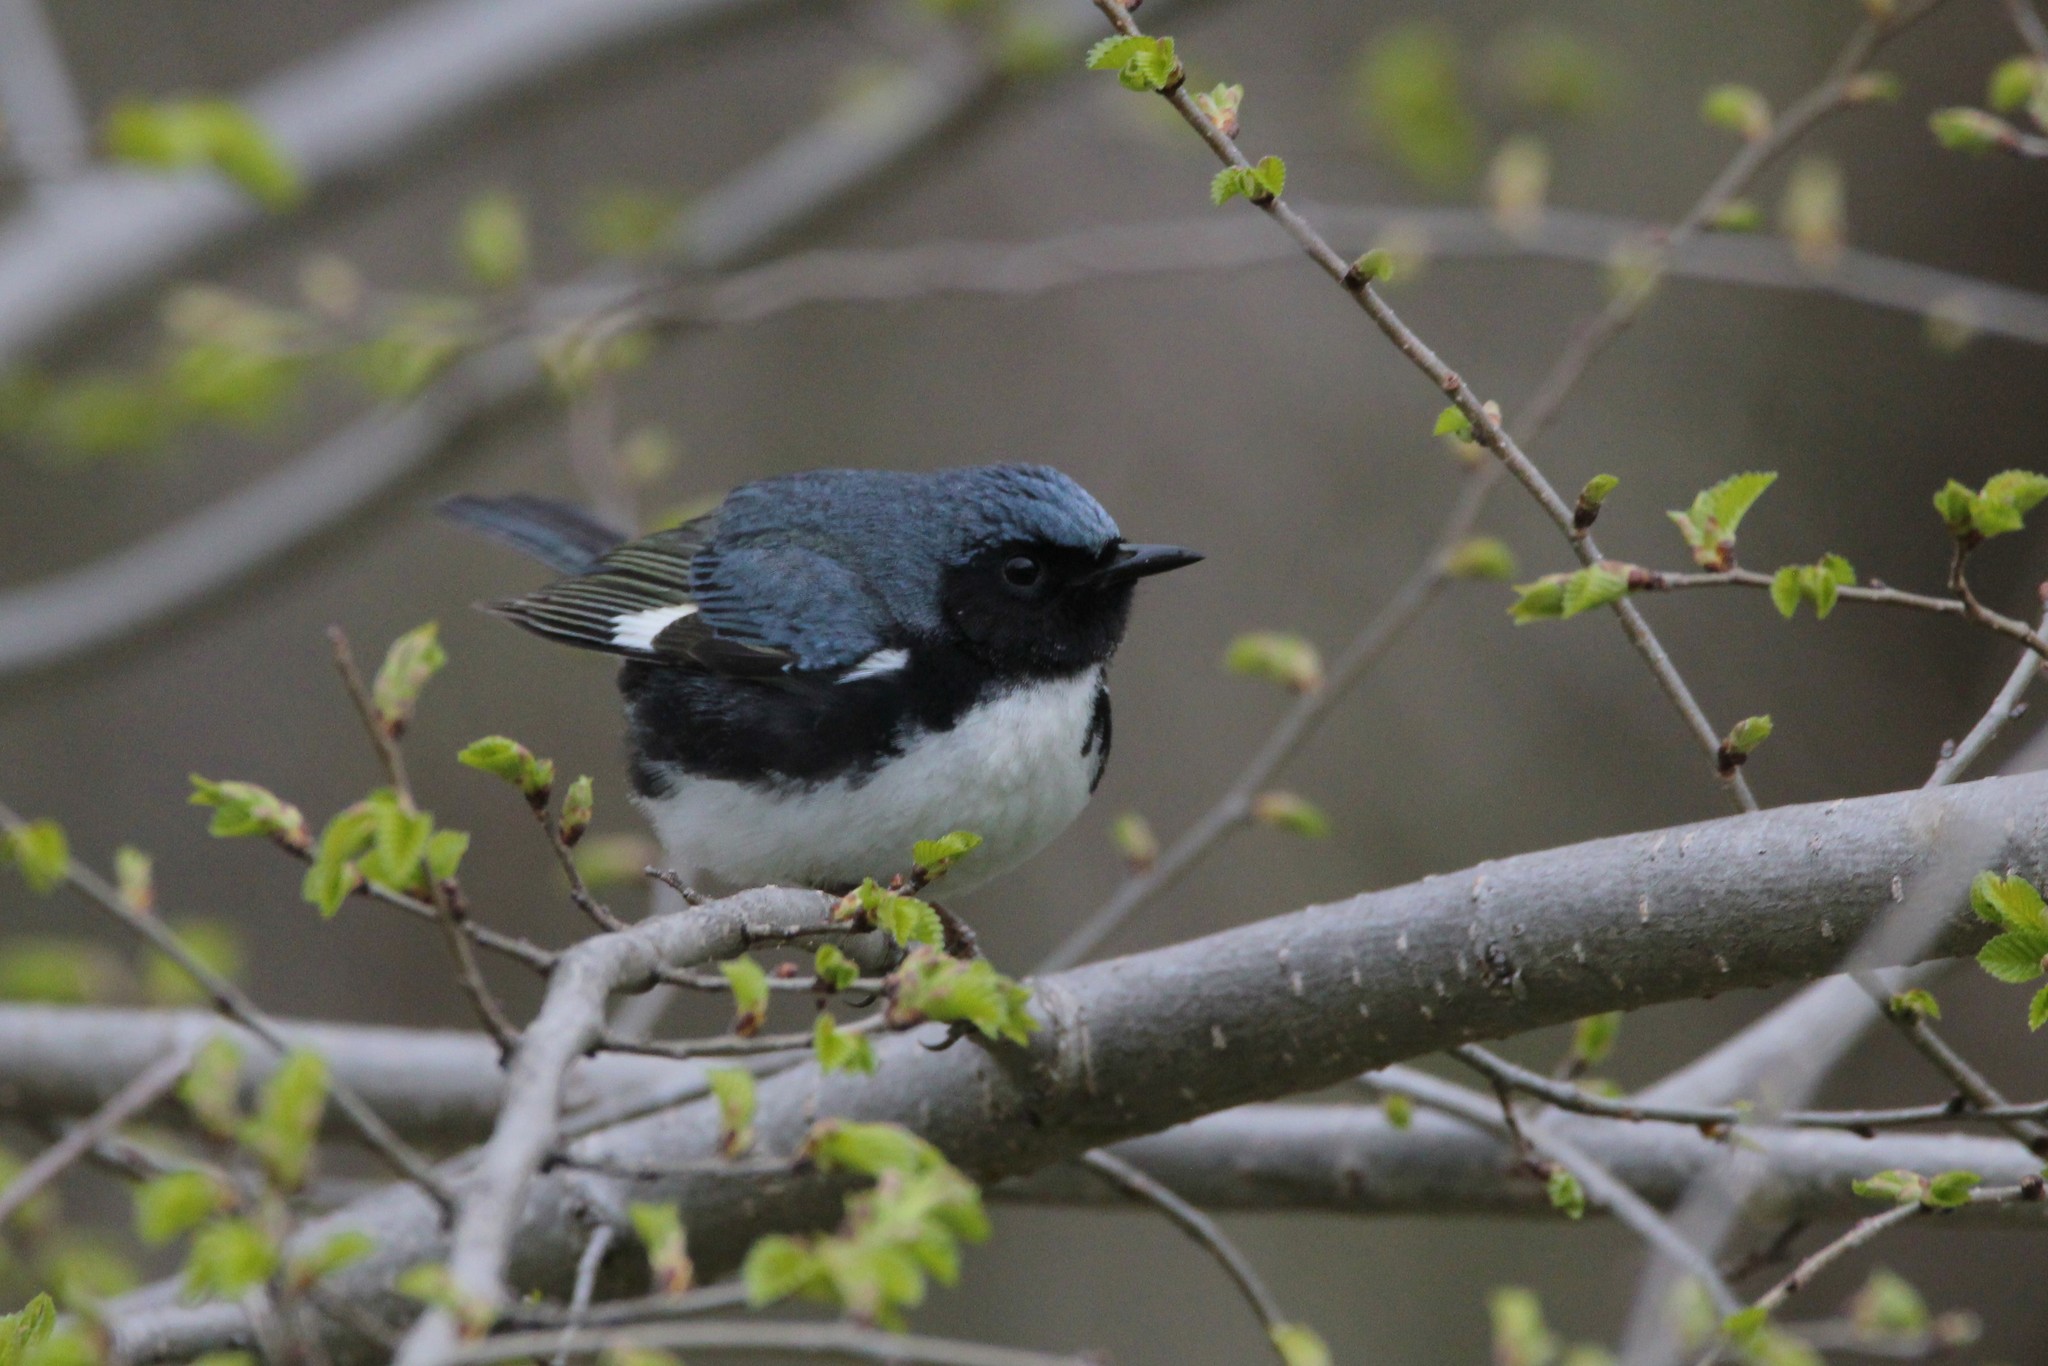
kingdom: Animalia
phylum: Chordata
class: Aves
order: Passeriformes
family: Parulidae
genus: Setophaga
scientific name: Setophaga caerulescens
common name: Black-throated blue warbler
